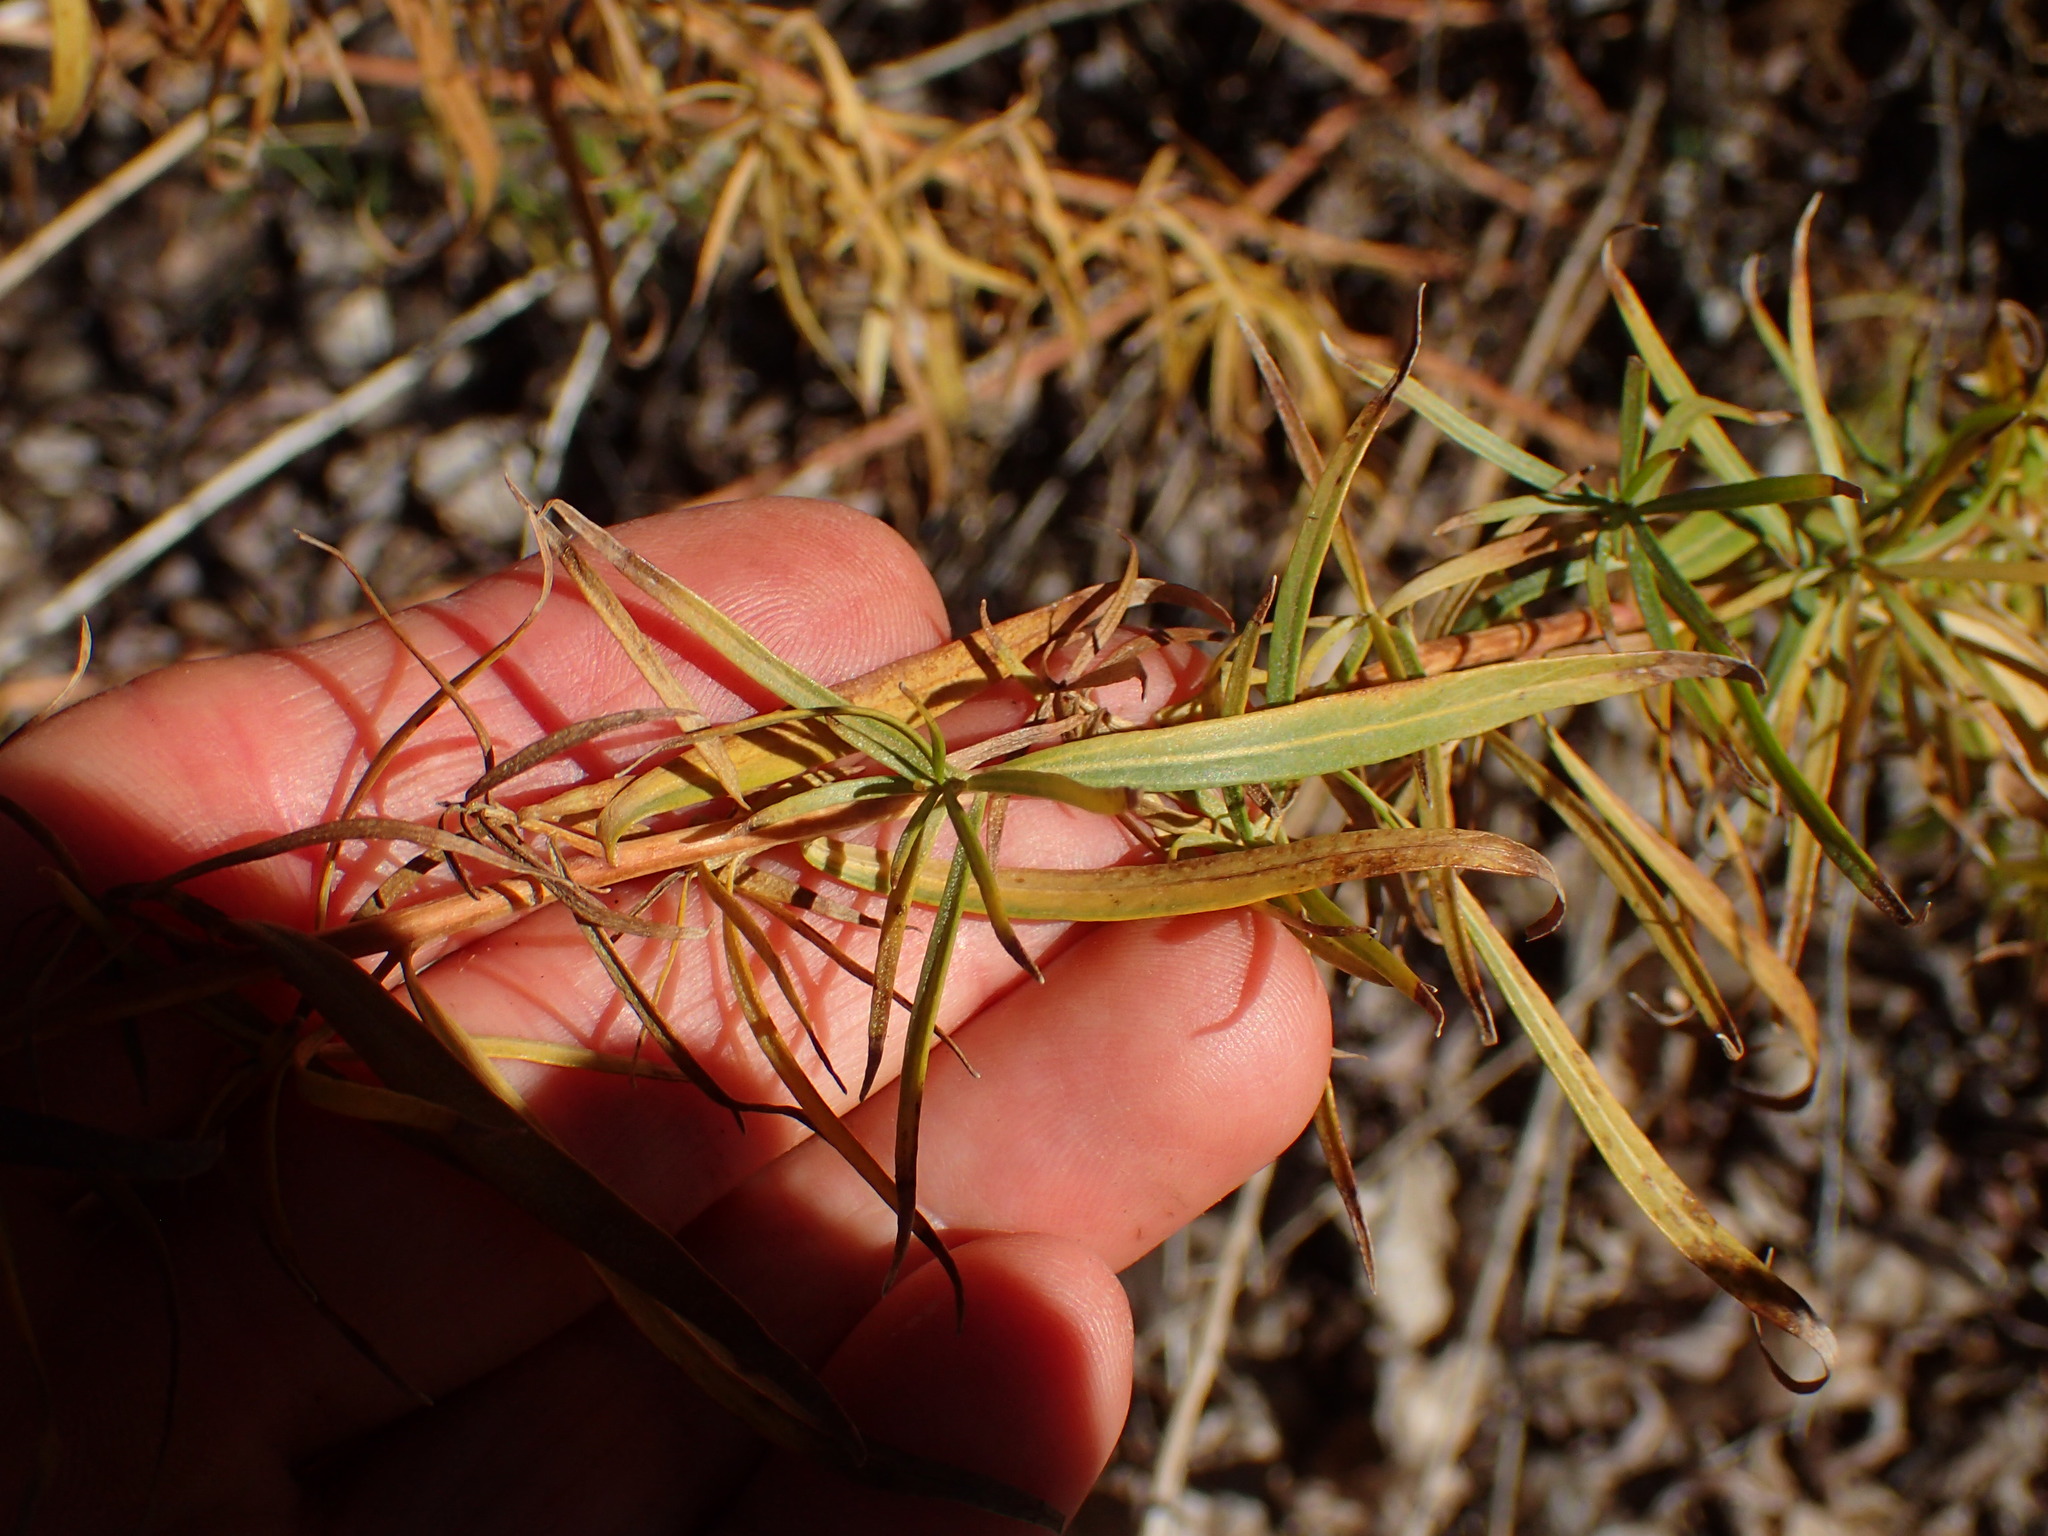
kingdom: Plantae
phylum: Tracheophyta
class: Magnoliopsida
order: Asterales
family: Asteraceae
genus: Artemisia
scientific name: Artemisia dracunculus
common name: Tarragon
